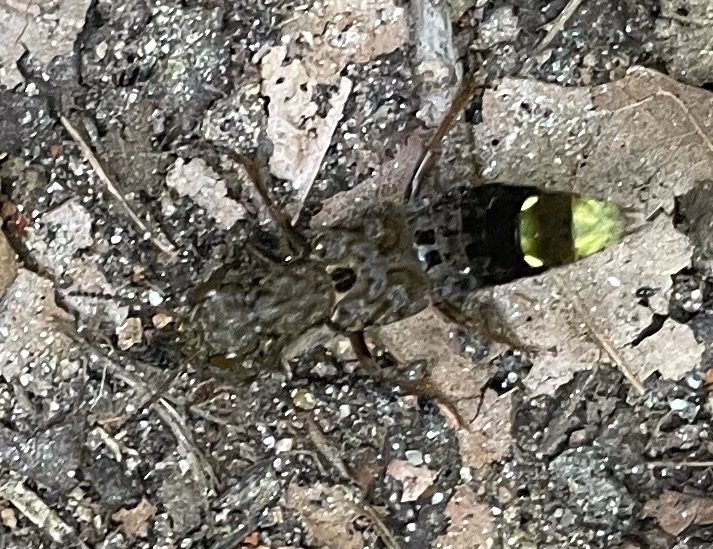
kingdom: Animalia
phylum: Arthropoda
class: Insecta
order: Coleoptera
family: Staphylinidae
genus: Ontholestes
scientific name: Ontholestes cingulatus
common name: Gold-and-brown rove beetle
